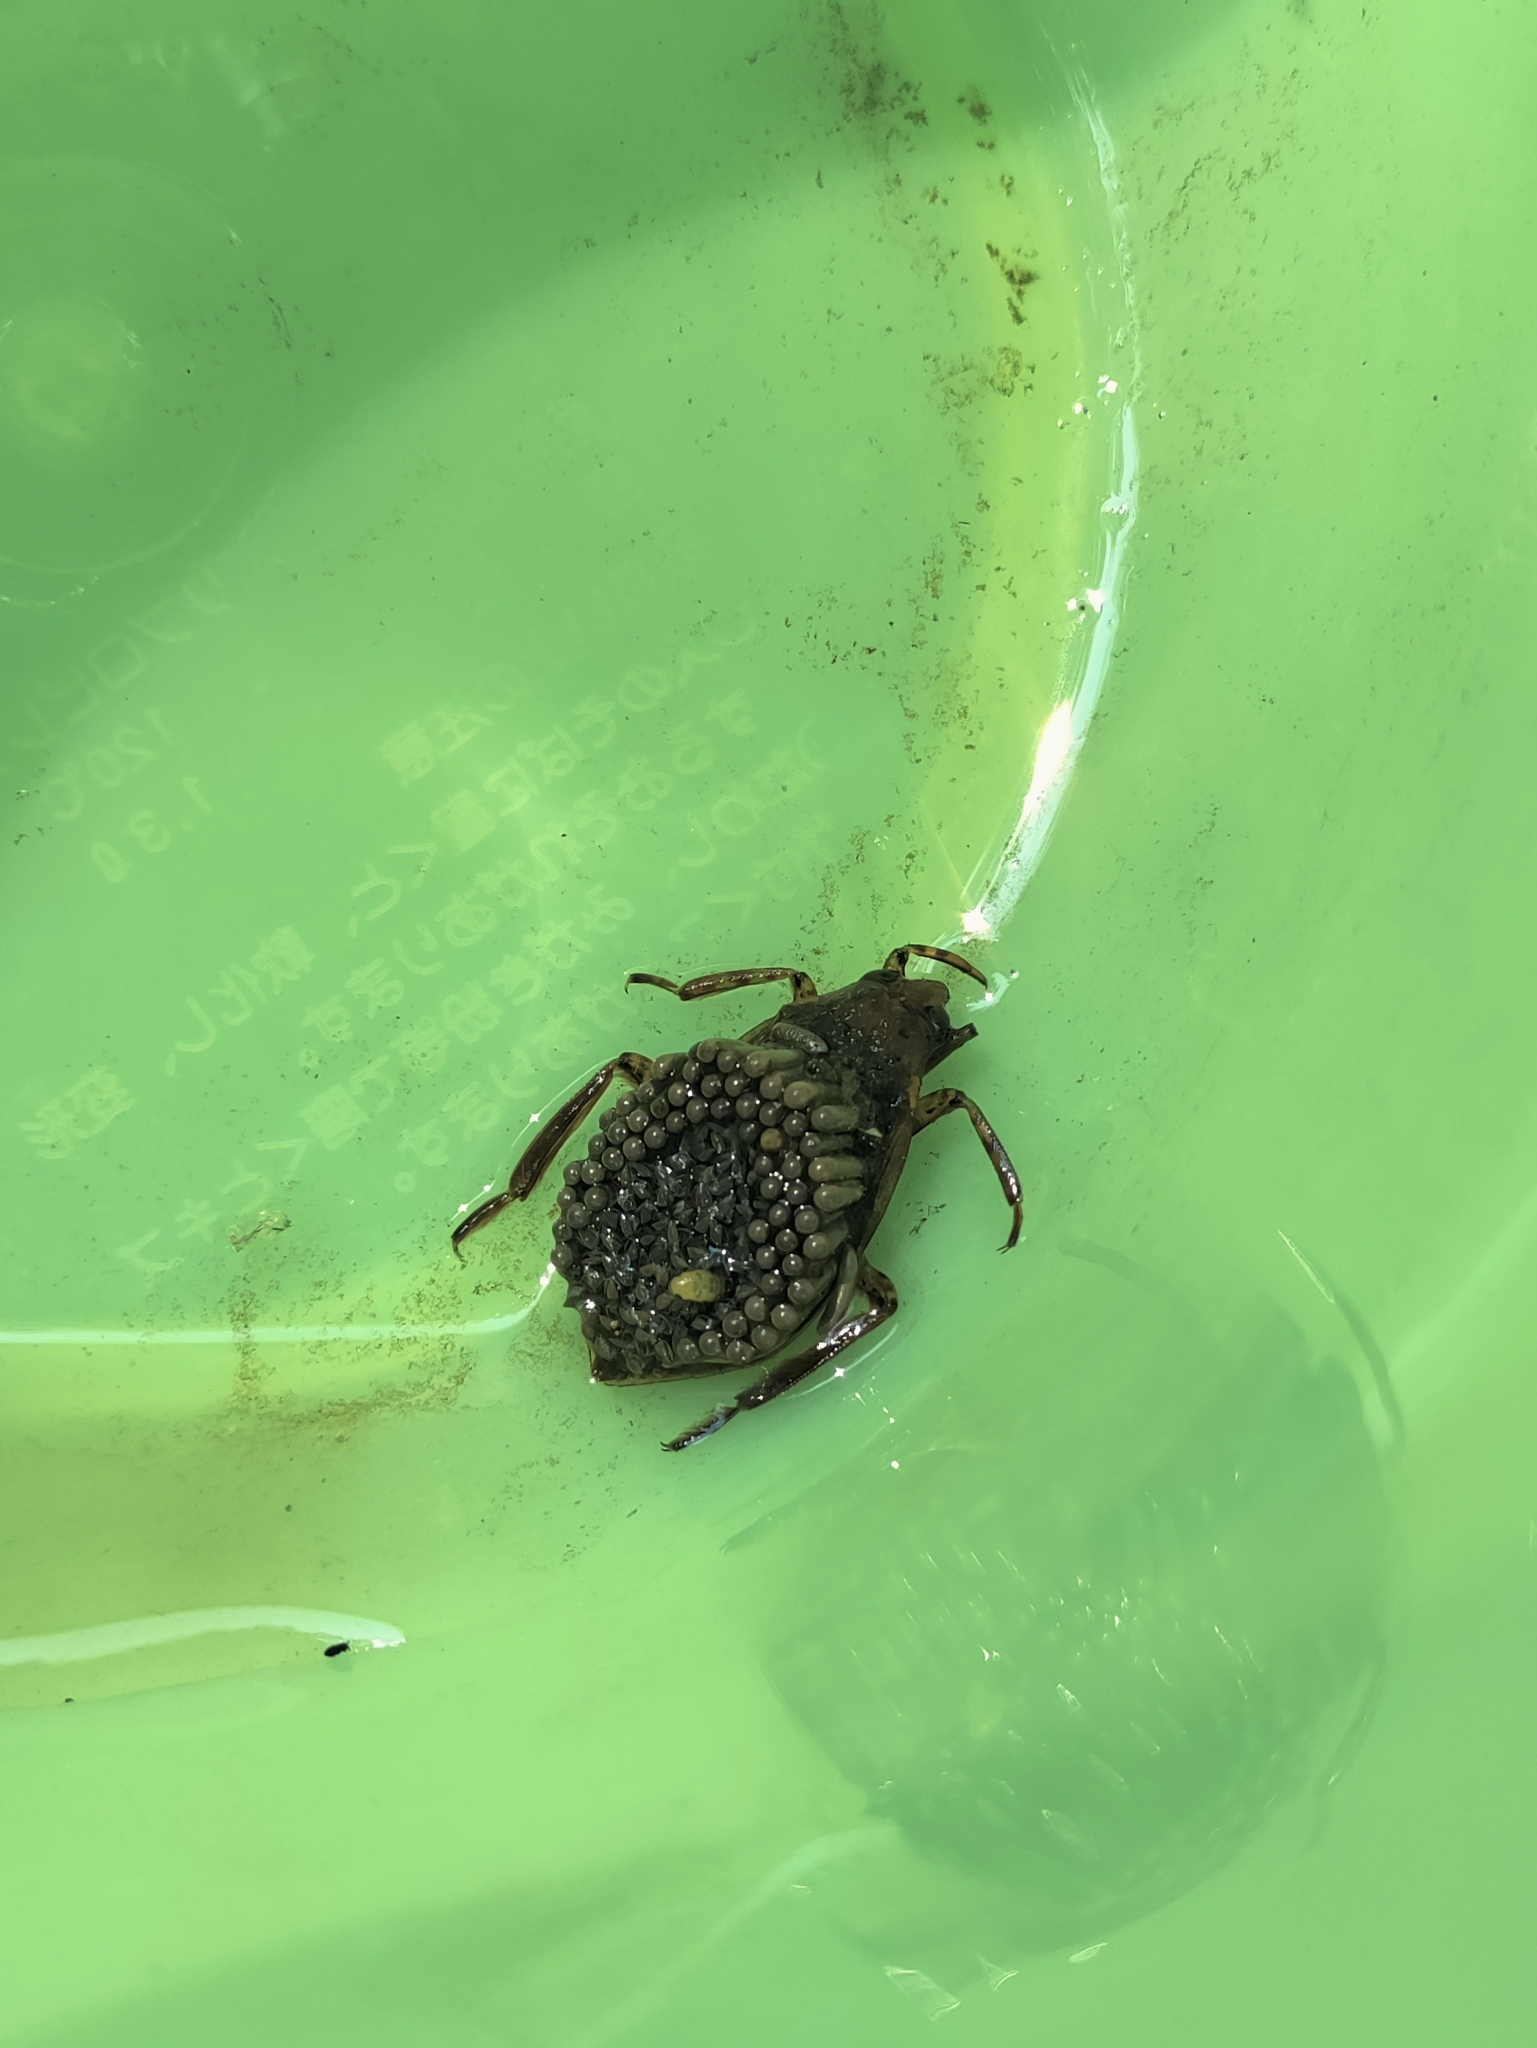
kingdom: Animalia
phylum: Arthropoda
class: Insecta
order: Hemiptera
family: Belostomatidae
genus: Belostoma
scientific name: Belostoma
